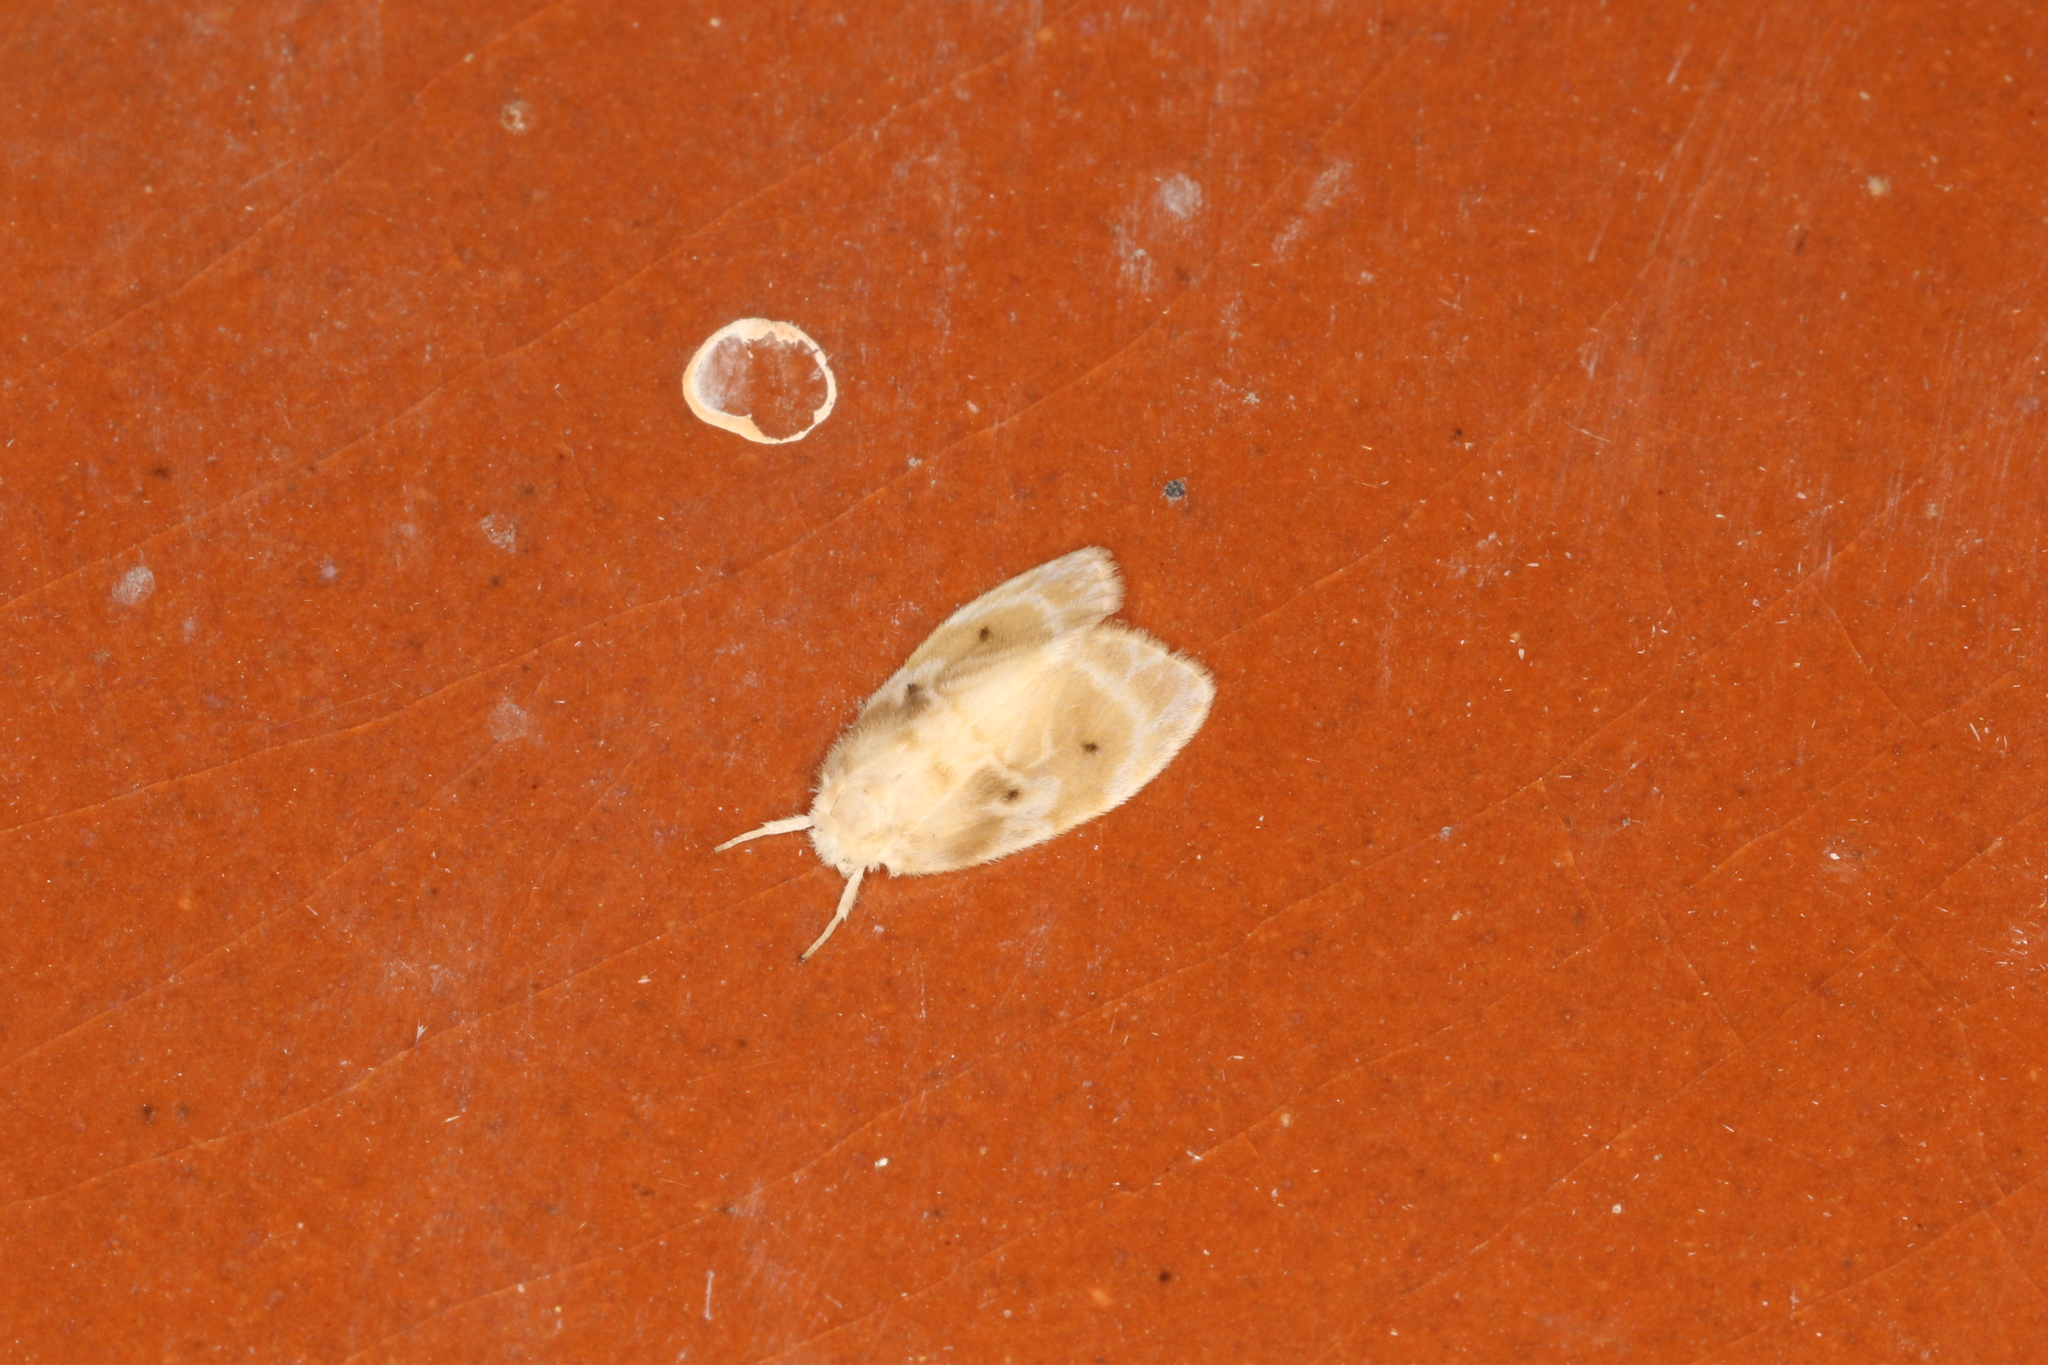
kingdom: Animalia
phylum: Arthropoda
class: Insecta
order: Lepidoptera
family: Erebidae
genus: Schistophleps
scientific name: Schistophleps bipuncta
